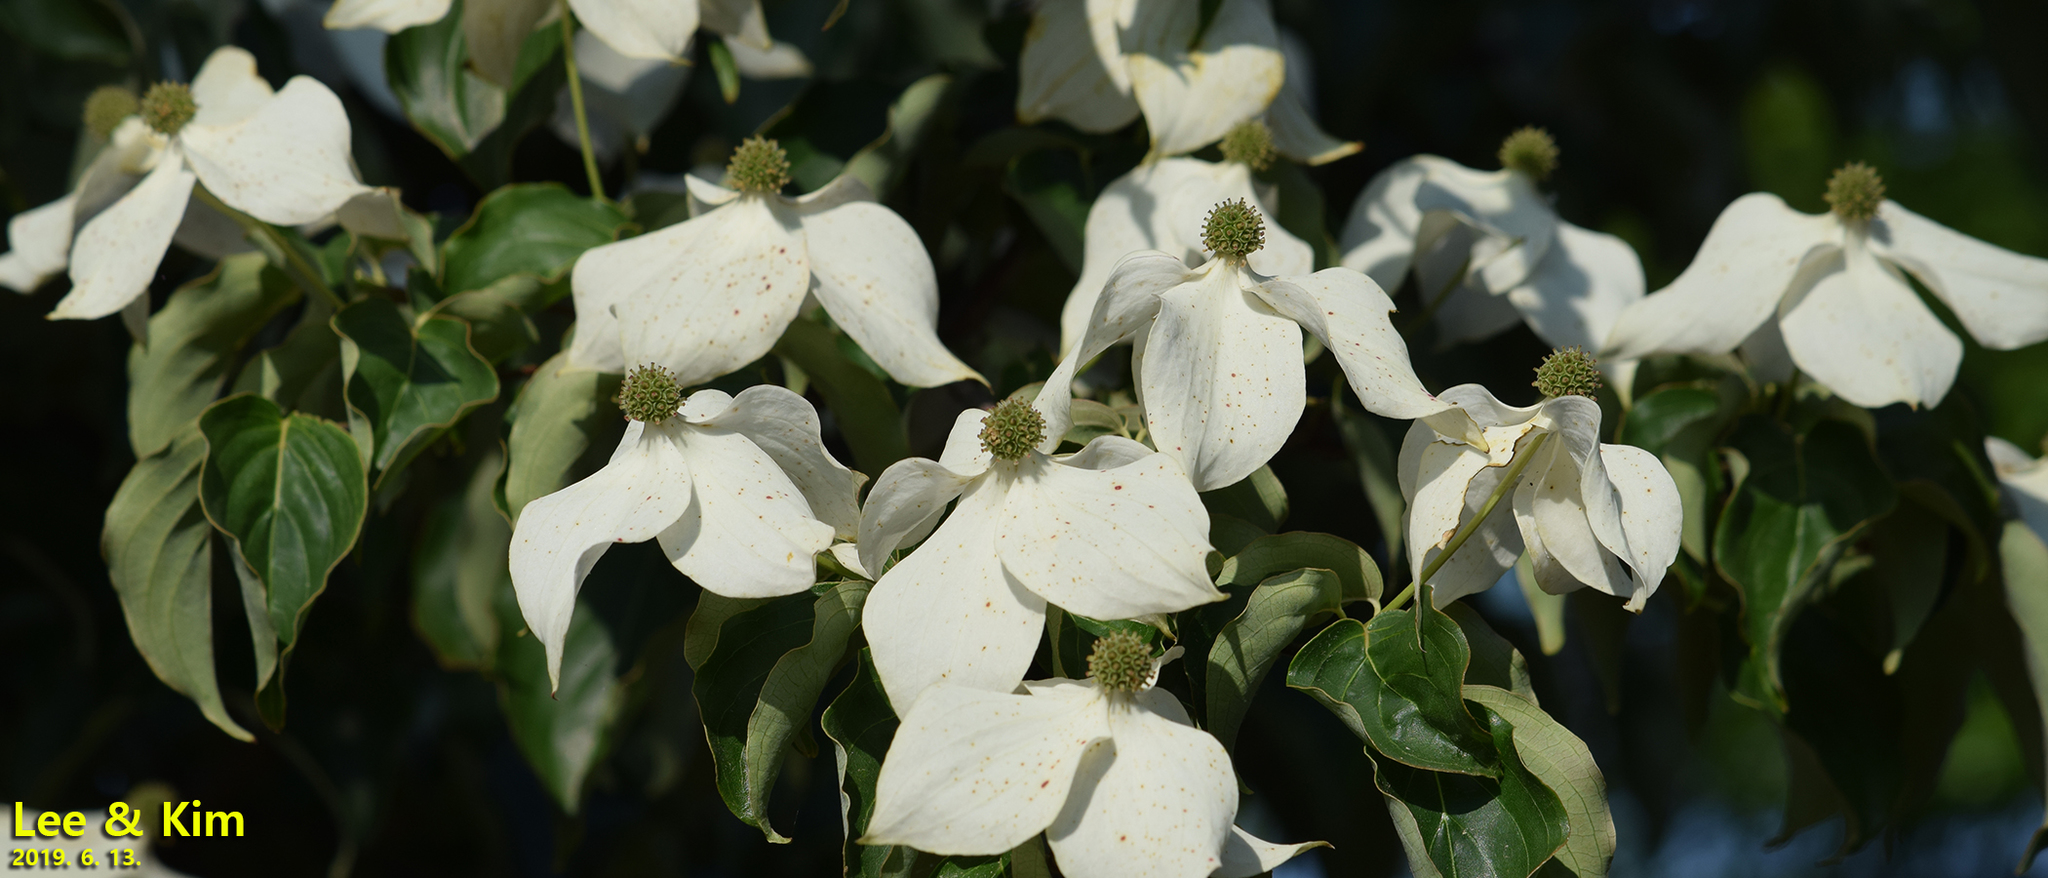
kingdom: Plantae
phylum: Tracheophyta
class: Magnoliopsida
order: Cornales
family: Cornaceae
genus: Cornus
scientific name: Cornus kousa
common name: Japanese dogwood
